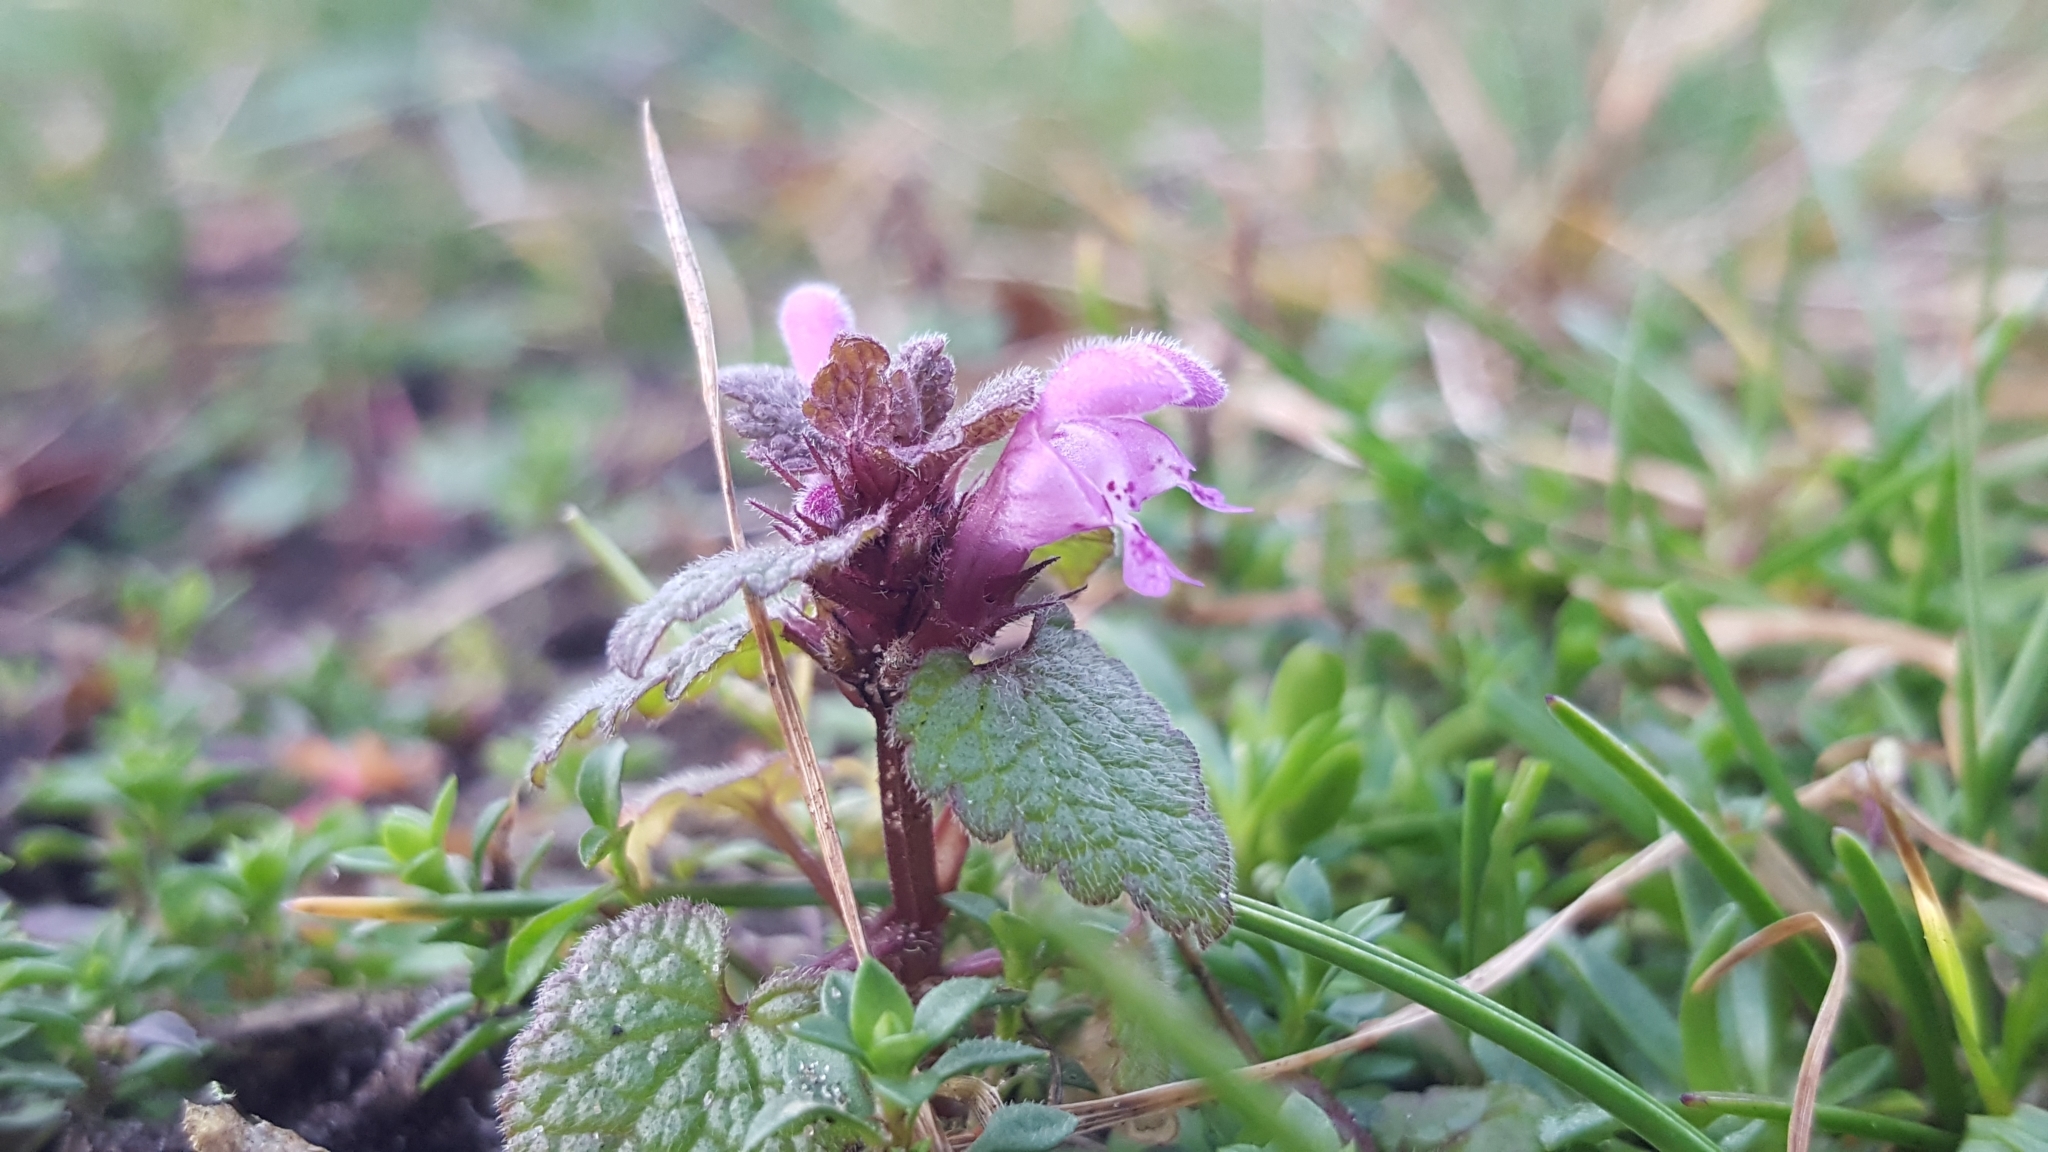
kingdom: Plantae
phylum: Tracheophyta
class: Magnoliopsida
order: Lamiales
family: Lamiaceae
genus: Lamium
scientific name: Lamium purpureum
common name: Red dead-nettle
